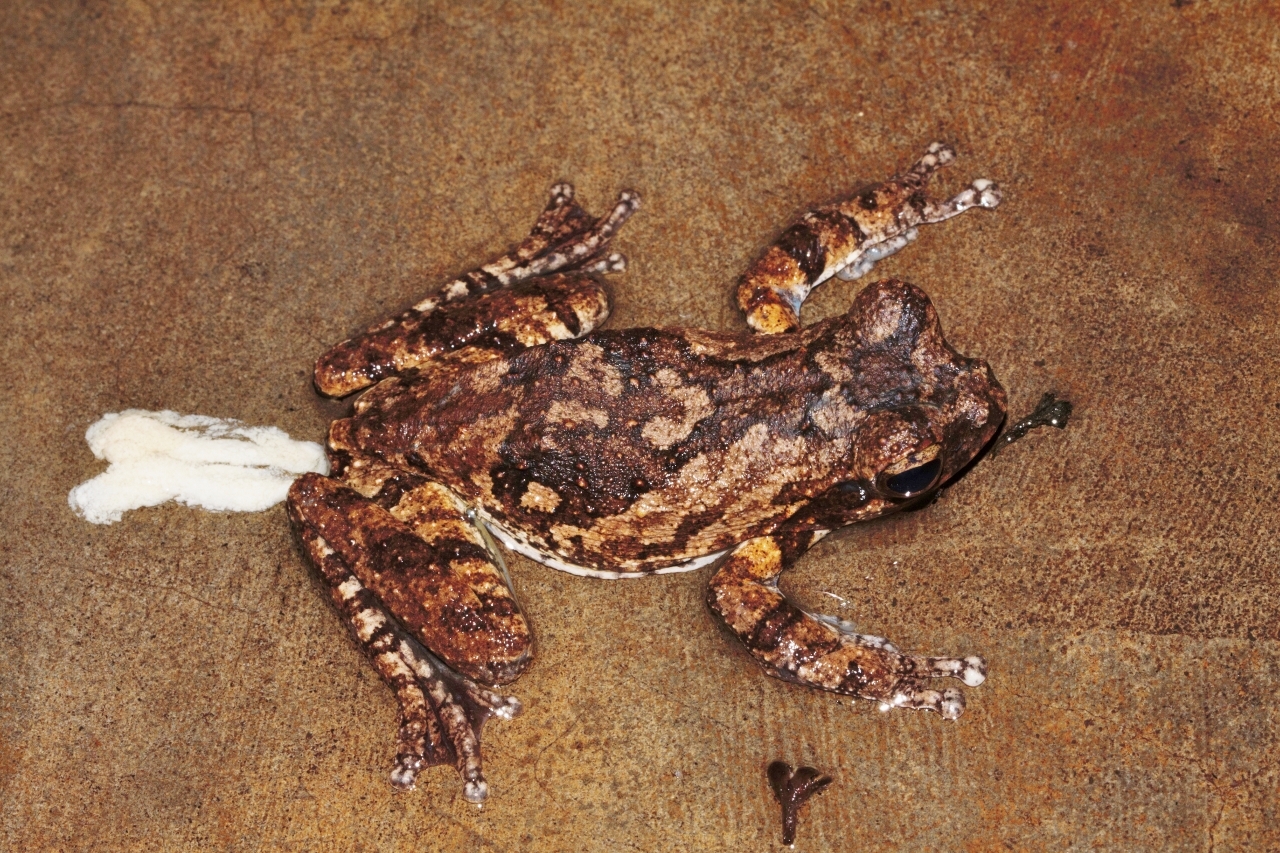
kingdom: Animalia
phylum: Chordata
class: Amphibia
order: Anura
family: Rhacophoridae
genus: Chiromantis
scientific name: Chiromantis xerampelina
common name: African gray treefrog
